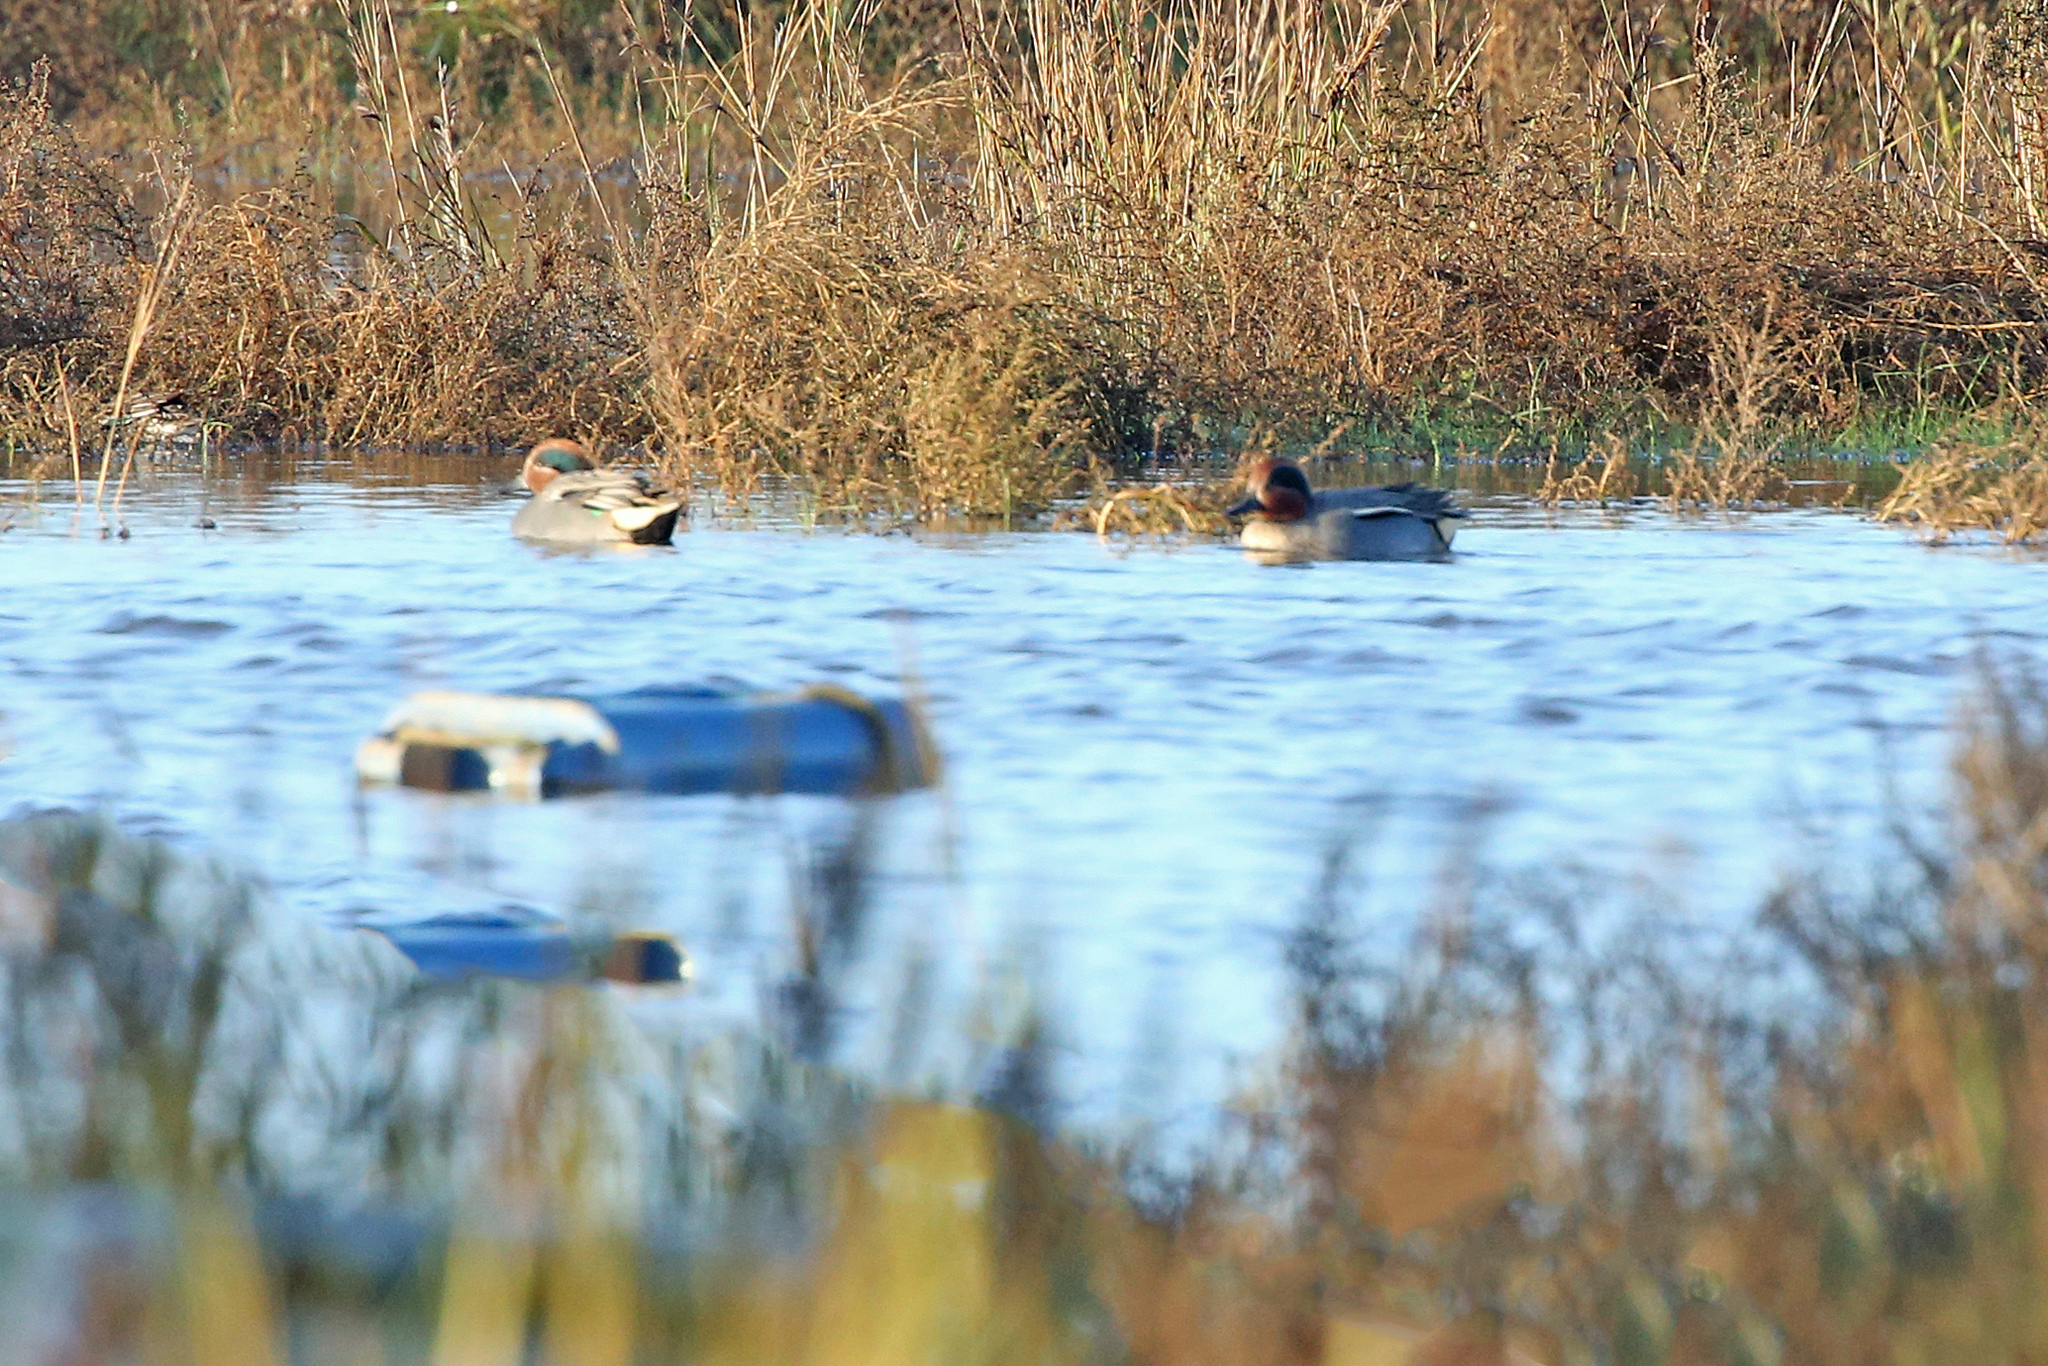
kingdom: Animalia
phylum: Chordata
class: Aves
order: Anseriformes
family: Anatidae
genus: Anas
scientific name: Anas crecca
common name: Eurasian teal
